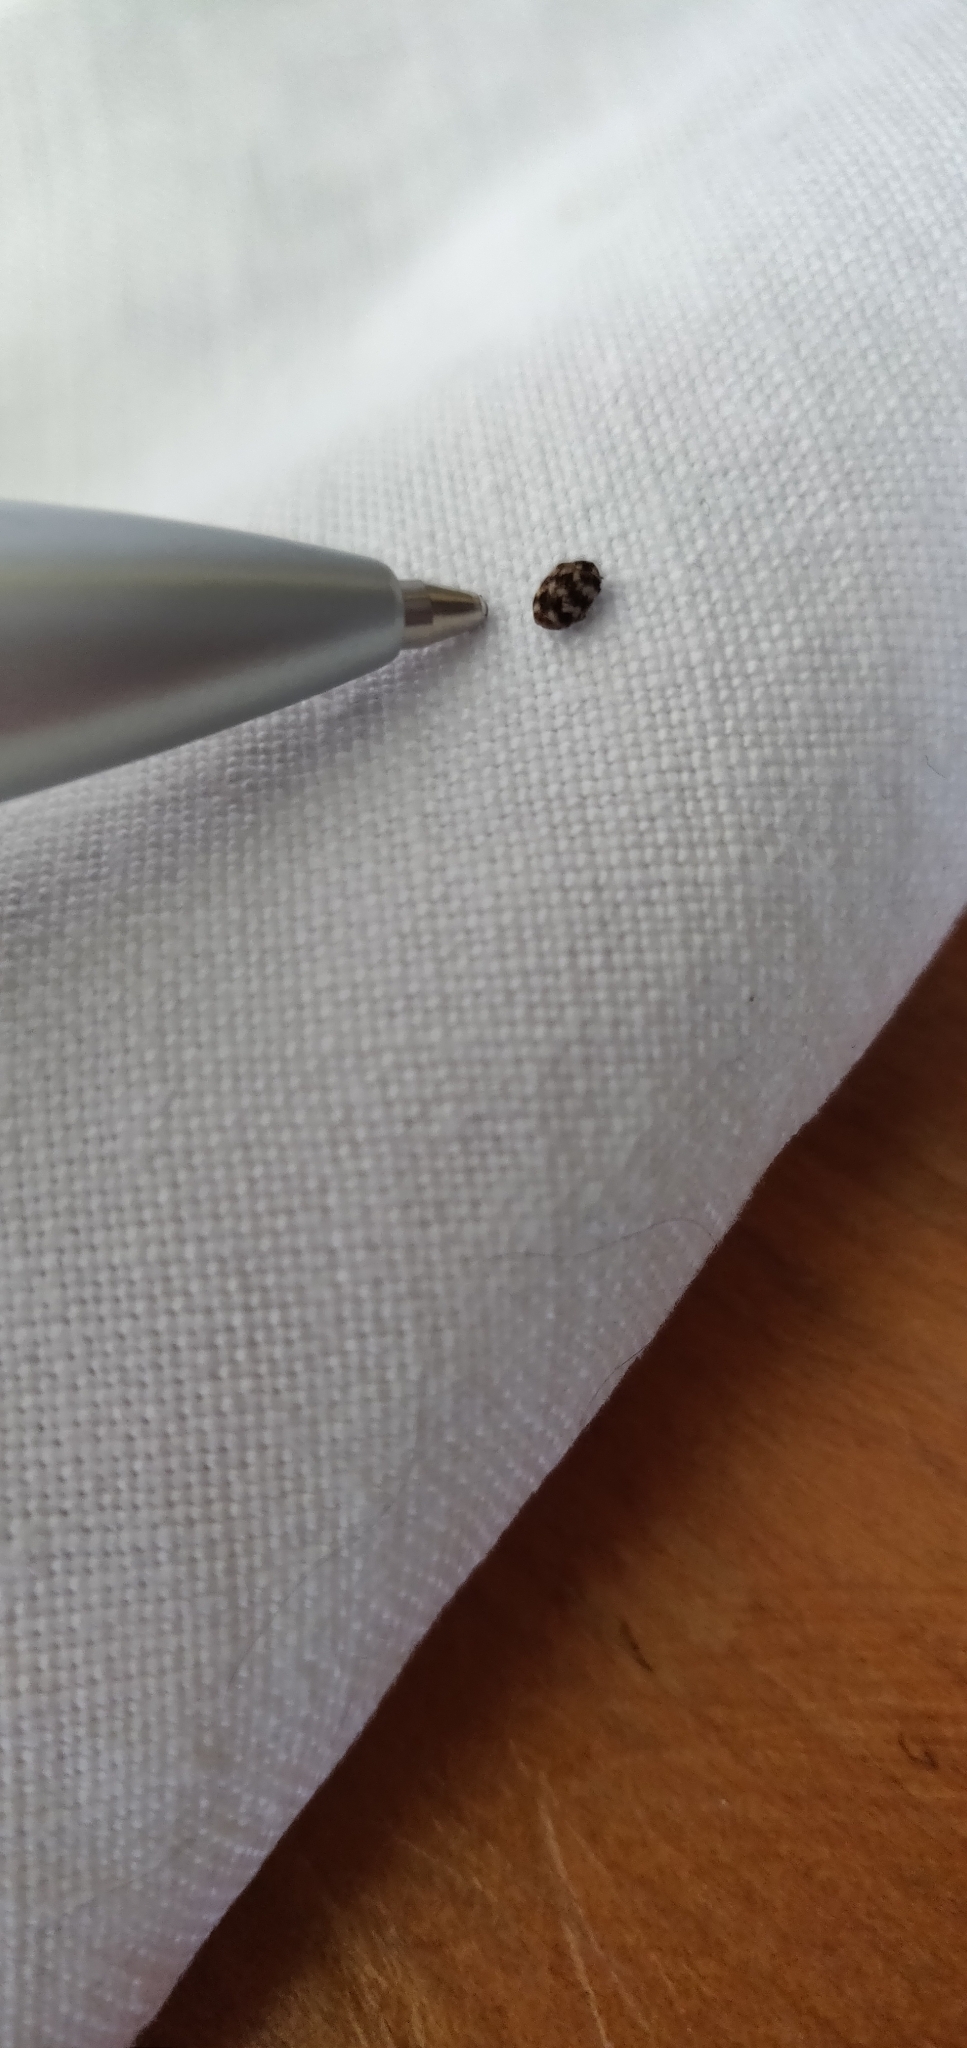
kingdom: Animalia
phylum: Arthropoda
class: Insecta
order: Coleoptera
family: Dermestidae
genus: Anthrenus
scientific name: Anthrenus verbasci
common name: Varied carpet beetle
